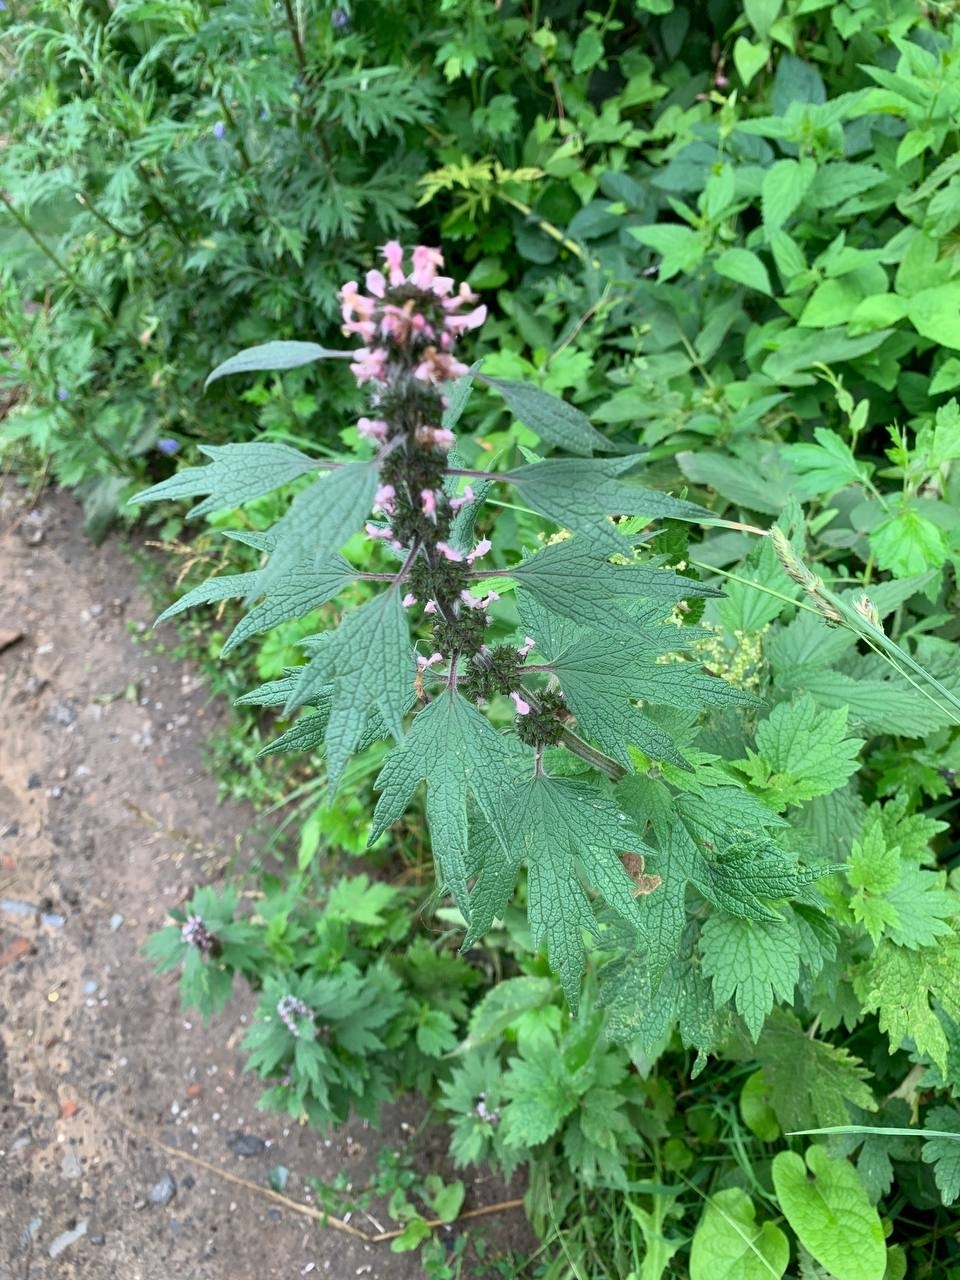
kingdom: Plantae
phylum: Tracheophyta
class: Magnoliopsida
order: Lamiales
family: Lamiaceae
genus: Leonurus
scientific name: Leonurus quinquelobatus
